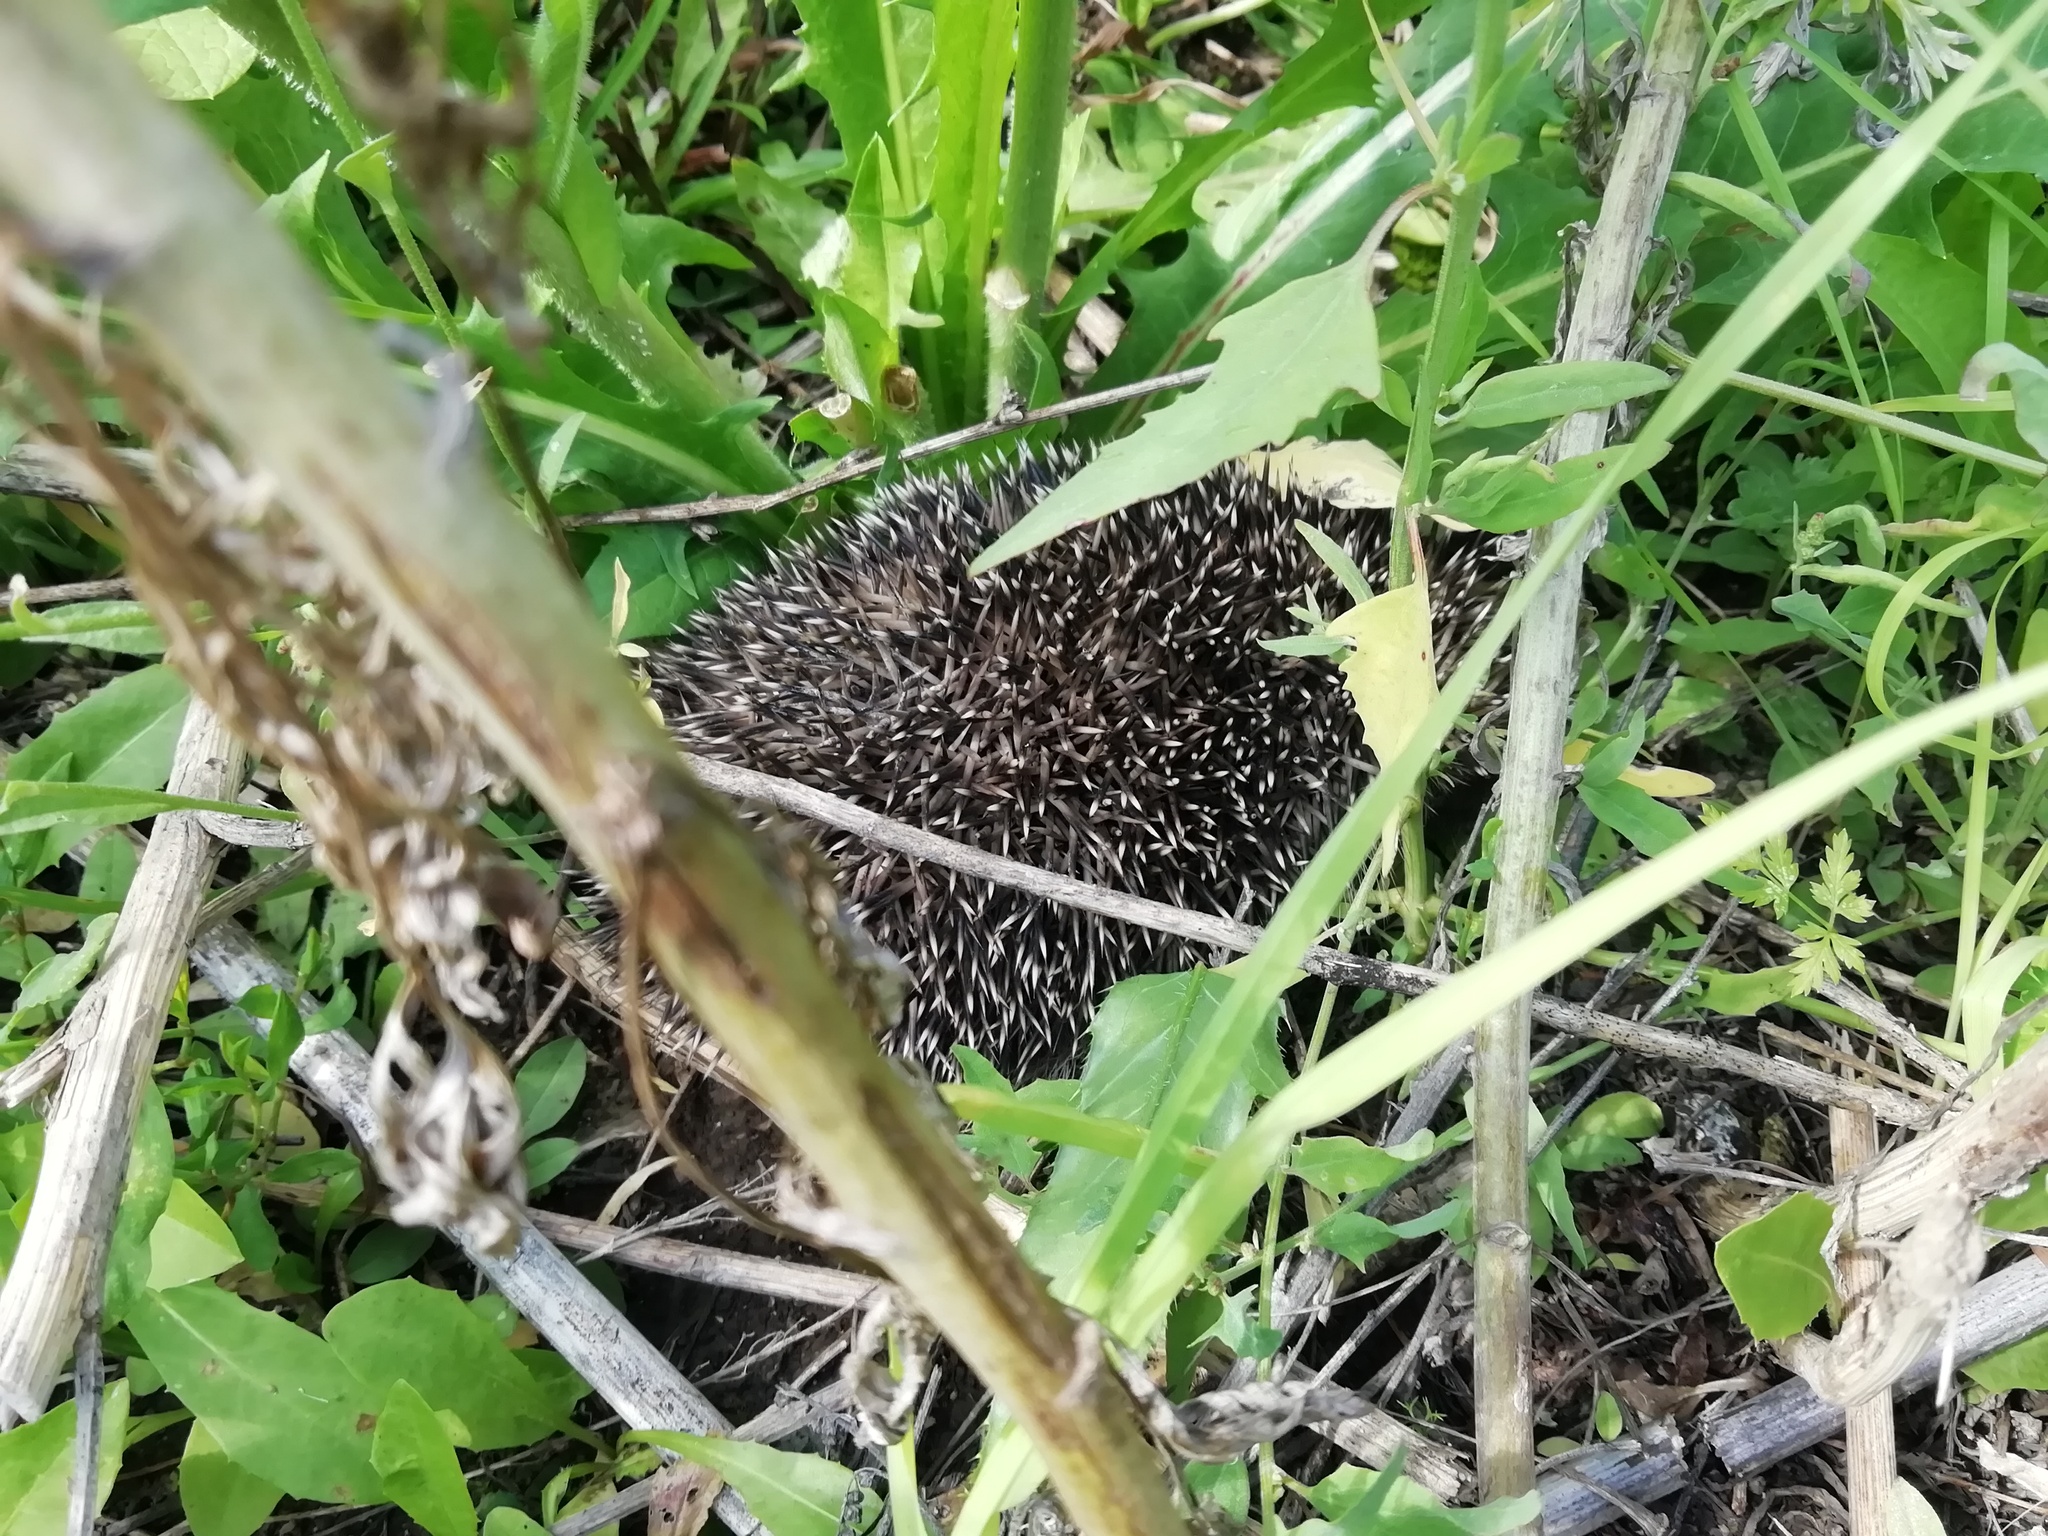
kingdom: Animalia
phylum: Chordata
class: Mammalia
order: Erinaceomorpha
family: Erinaceidae
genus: Erinaceus
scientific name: Erinaceus roumanicus
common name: Northern white-breasted hedgehog
